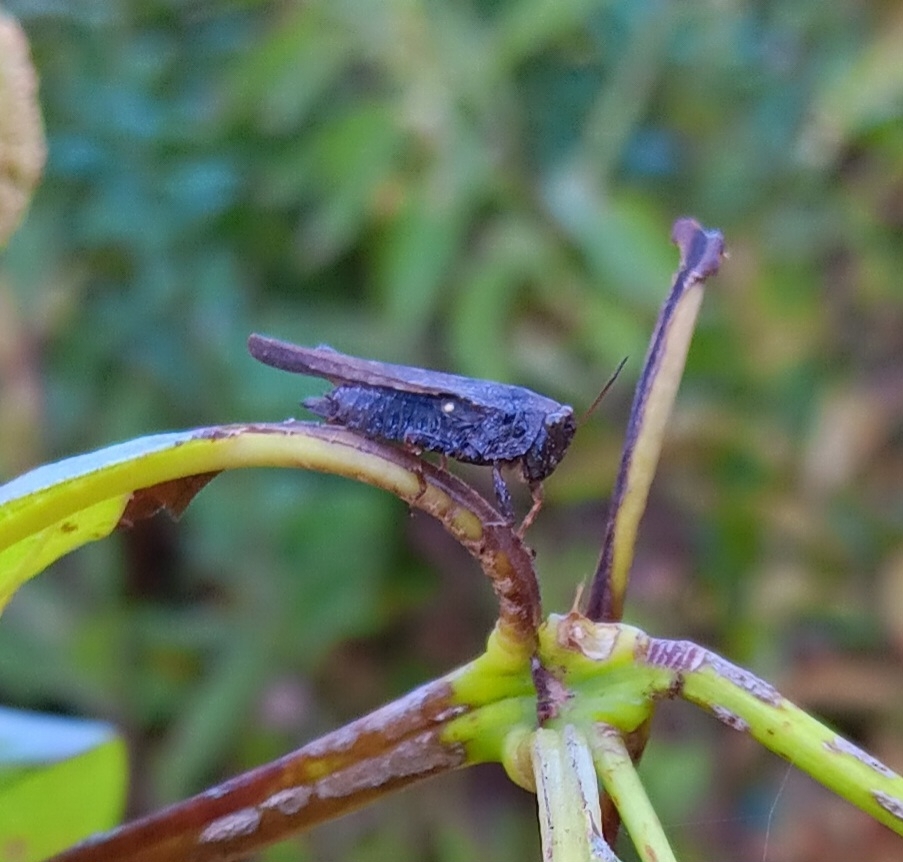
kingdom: Animalia
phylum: Arthropoda
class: Insecta
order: Orthoptera
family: Tetrigidae
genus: Tettigidea
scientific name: Tettigidea laterale
